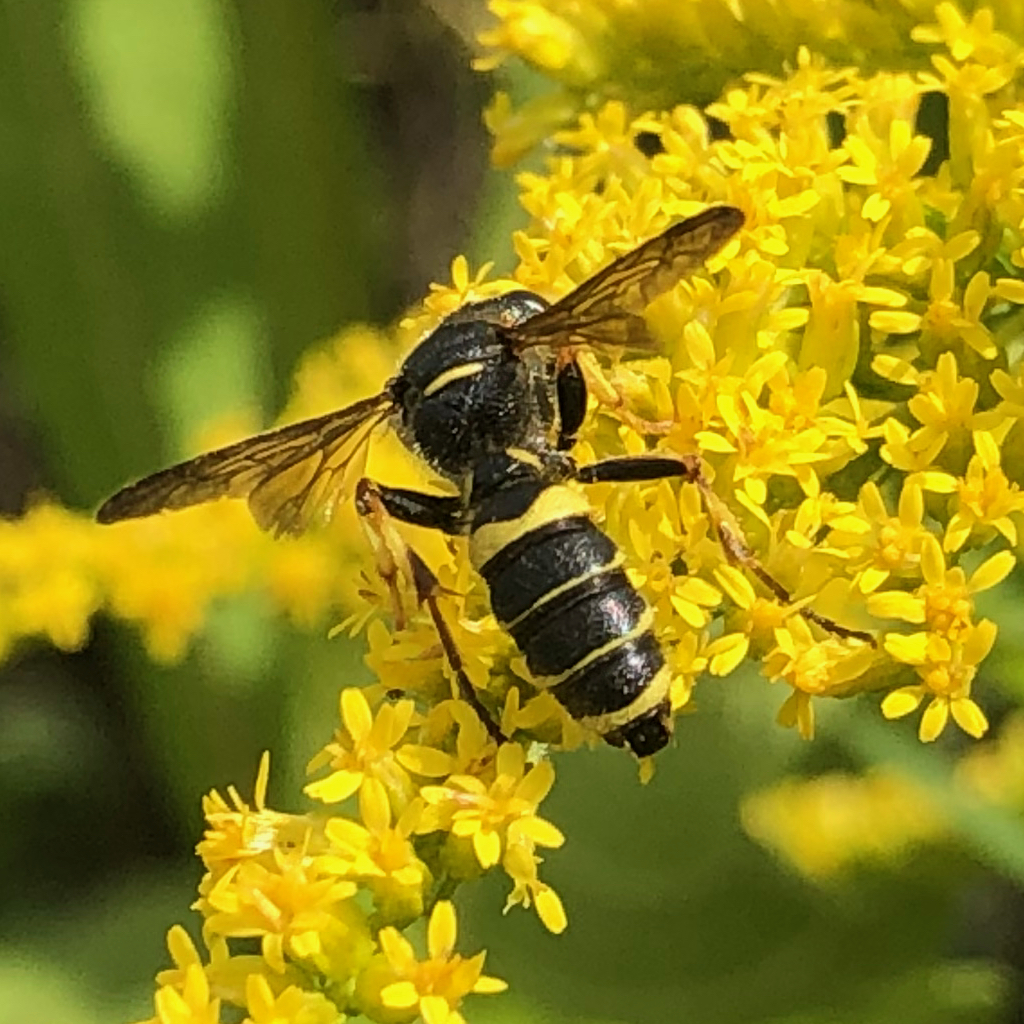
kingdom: Animalia
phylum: Arthropoda
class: Insecta
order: Hymenoptera
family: Crabronidae
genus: Cerceris
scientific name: Cerceris
